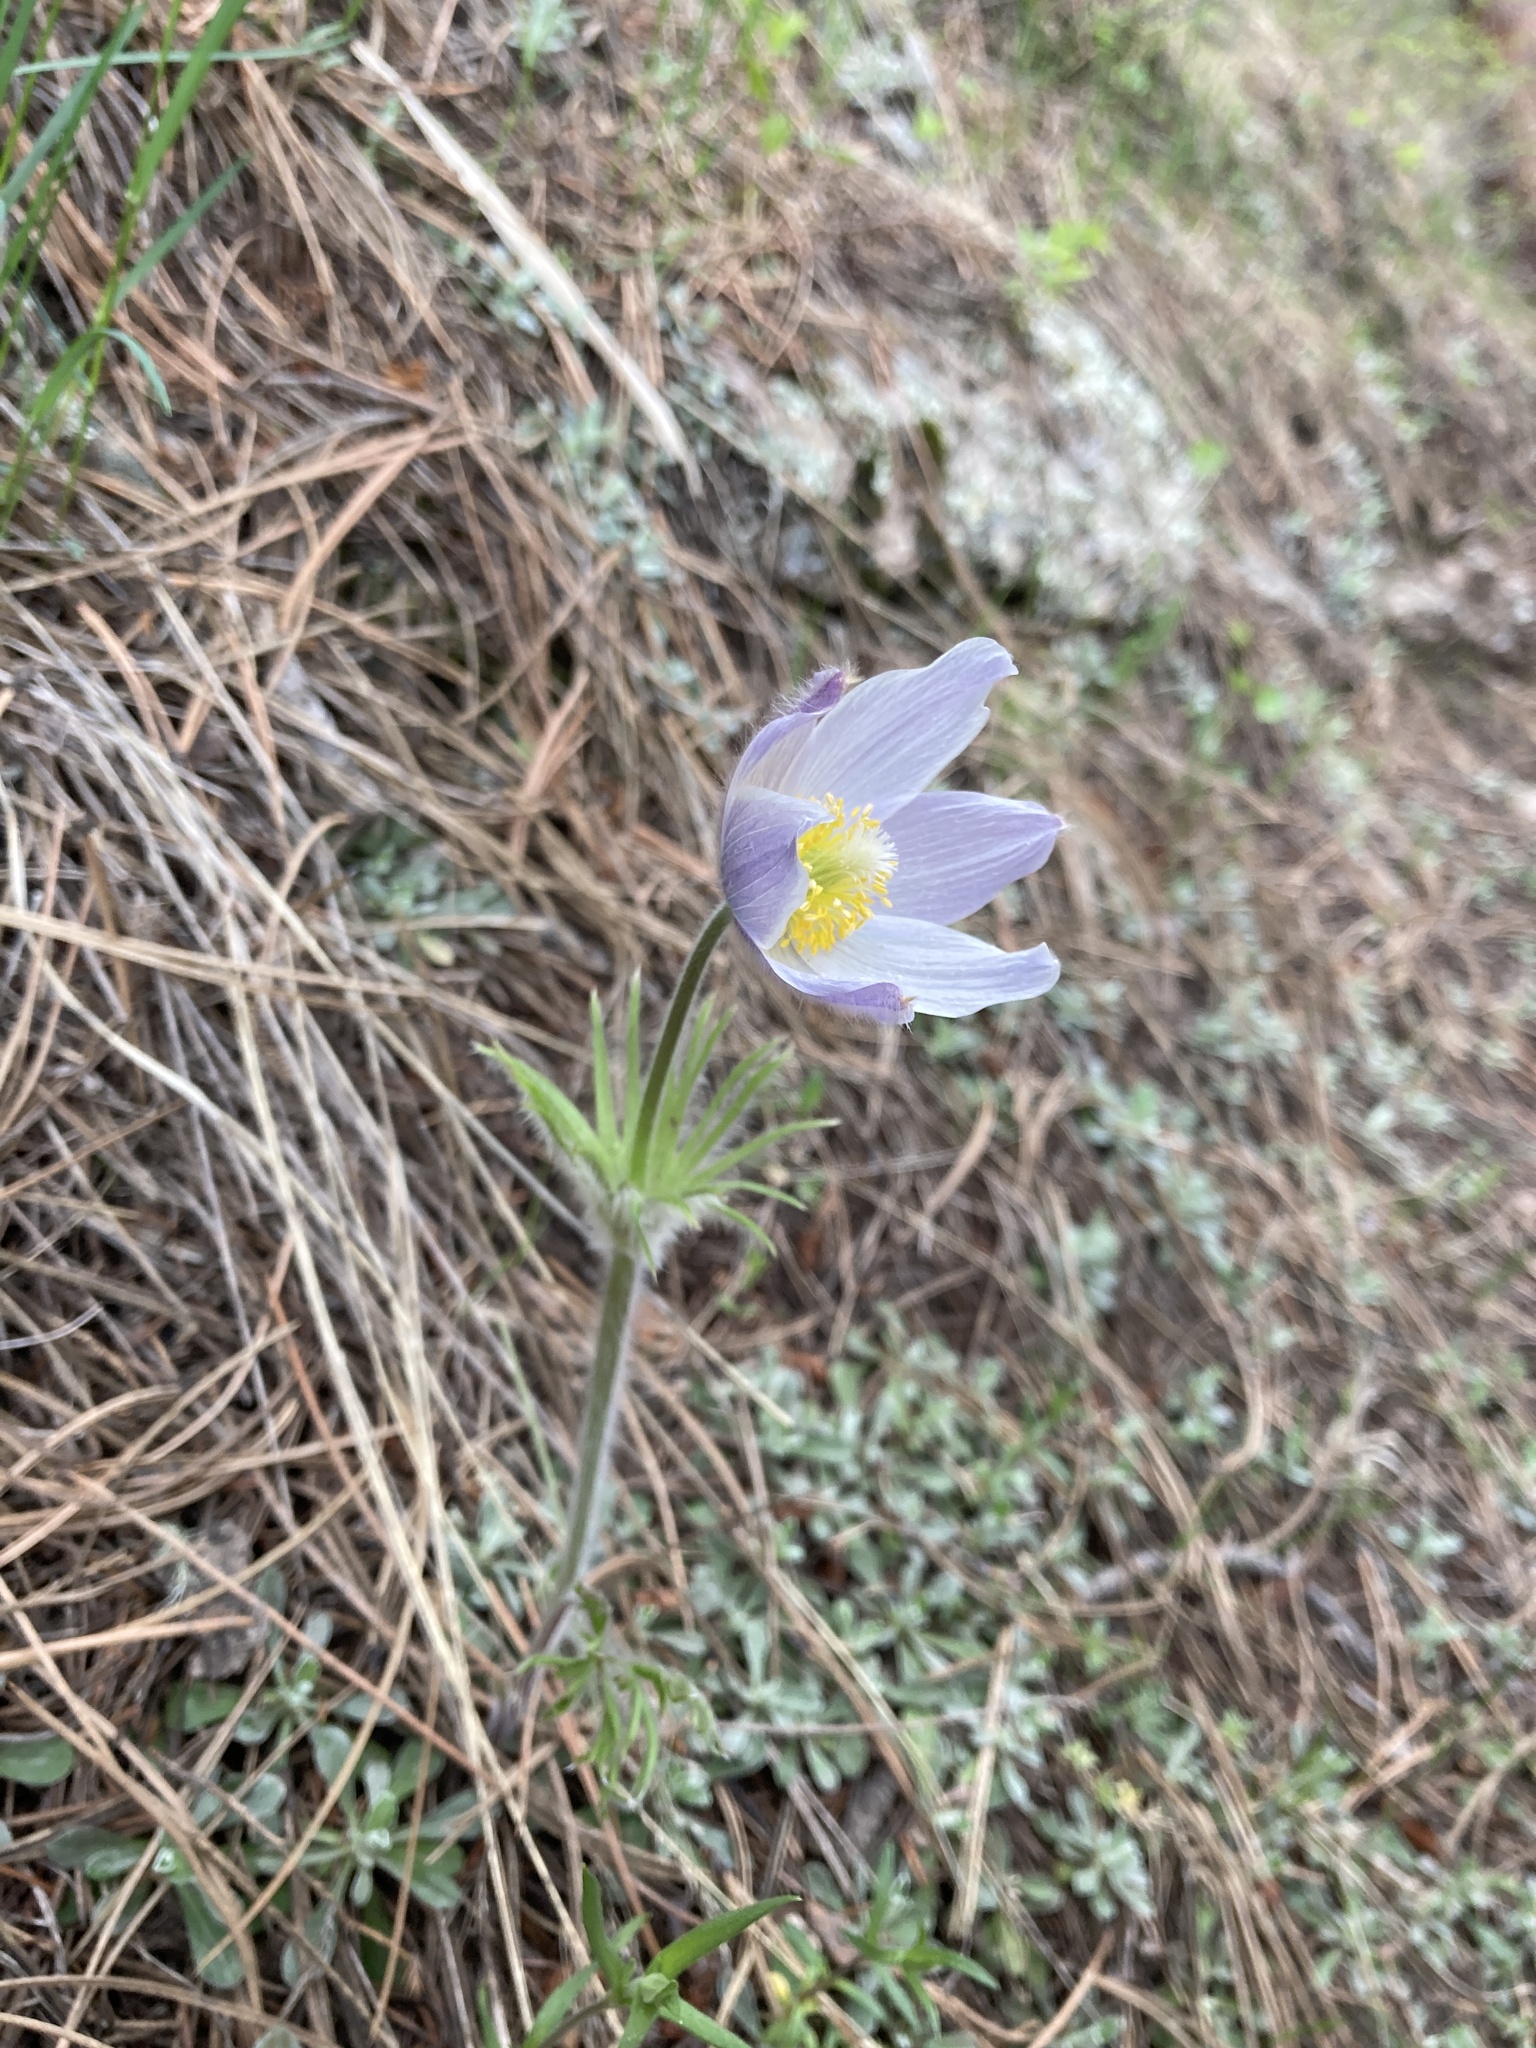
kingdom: Plantae
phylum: Tracheophyta
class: Magnoliopsida
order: Ranunculales
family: Ranunculaceae
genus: Pulsatilla
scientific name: Pulsatilla nuttalliana
